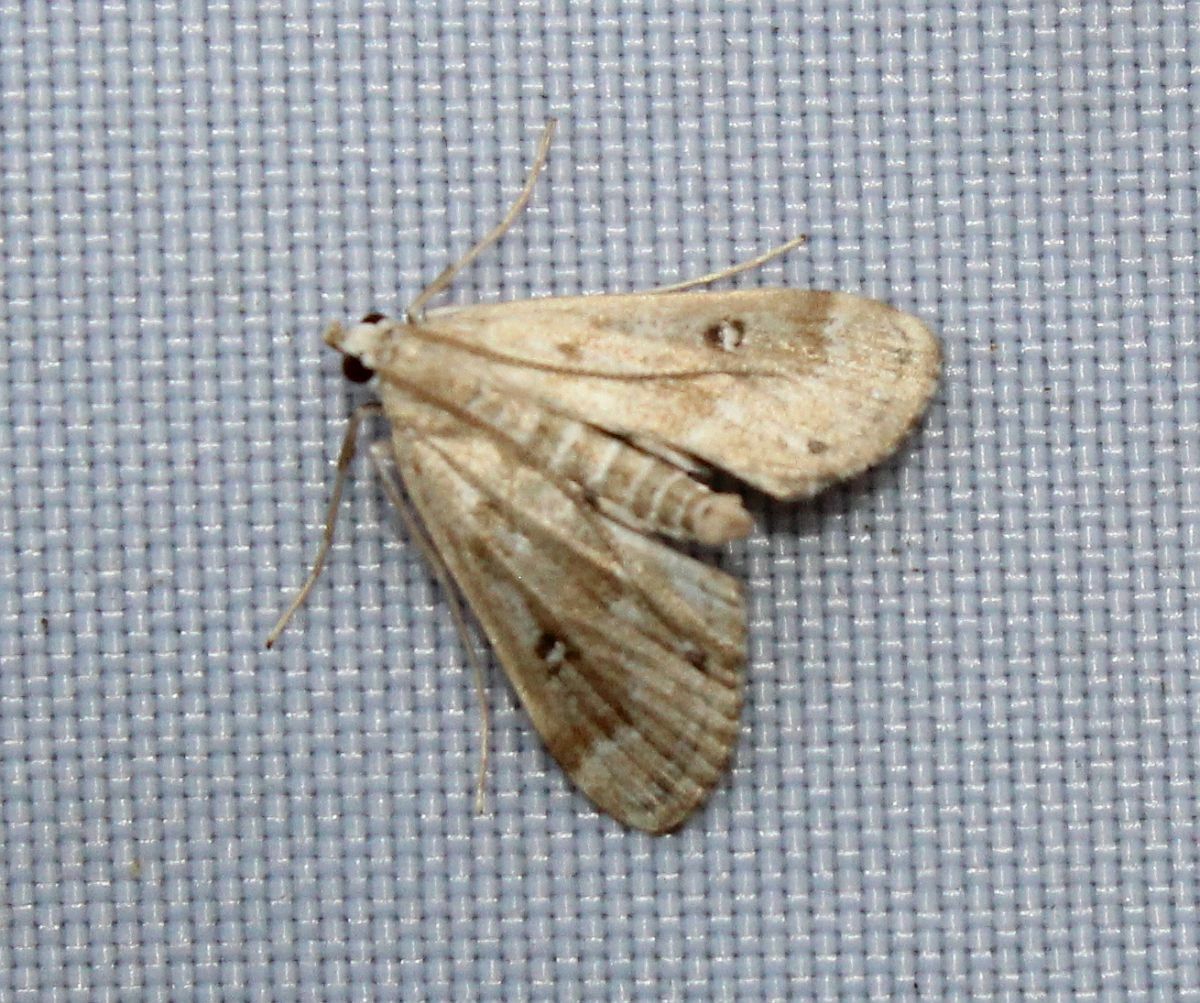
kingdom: Animalia
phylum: Arthropoda
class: Insecta
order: Lepidoptera
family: Crambidae
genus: Parapoynx
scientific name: Parapoynx stratiotata
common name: Ringed china-mark
